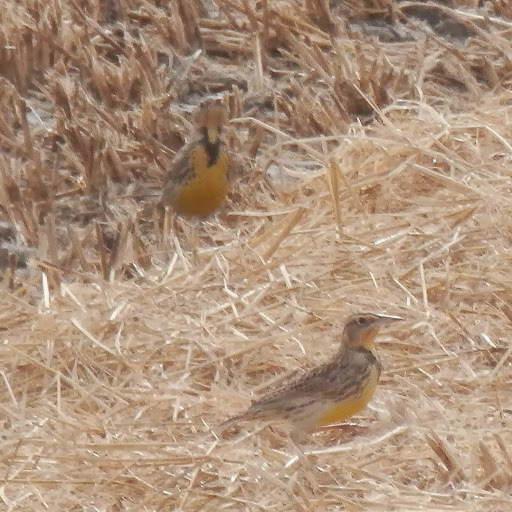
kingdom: Animalia
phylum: Chordata
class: Aves
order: Passeriformes
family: Icteridae
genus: Sturnella
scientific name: Sturnella neglecta
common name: Western meadowlark
